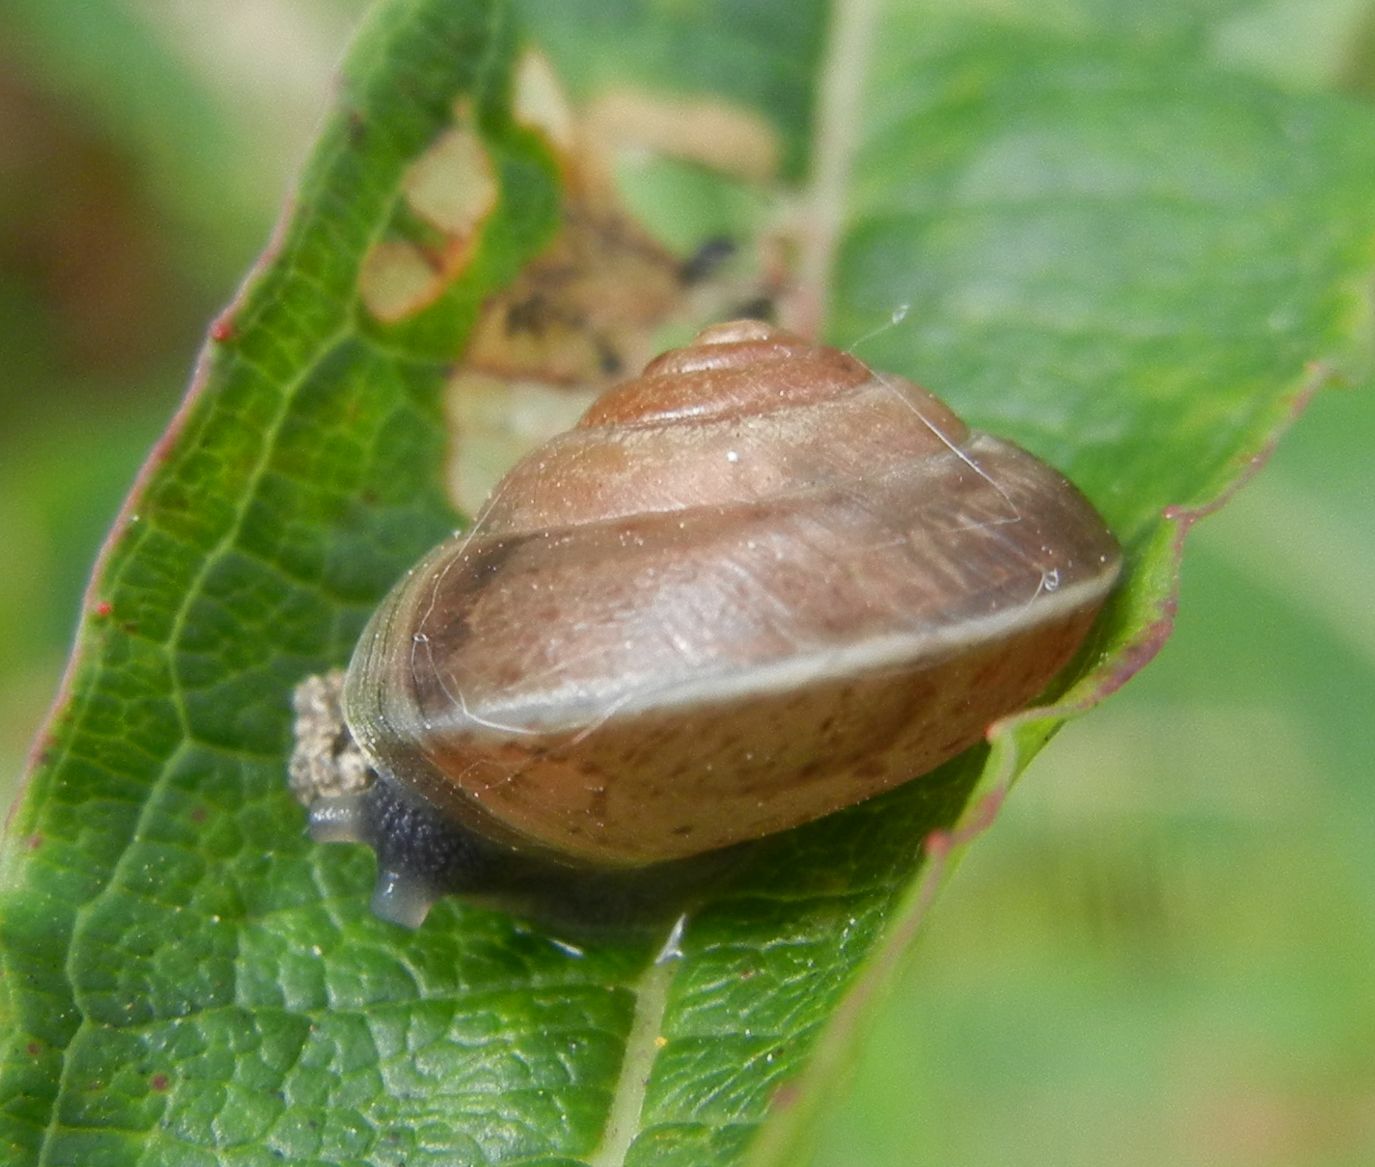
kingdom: Animalia
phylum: Mollusca
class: Gastropoda
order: Stylommatophora
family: Hygromiidae
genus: Hygromia
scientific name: Hygromia cinctella
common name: Girdled snail
